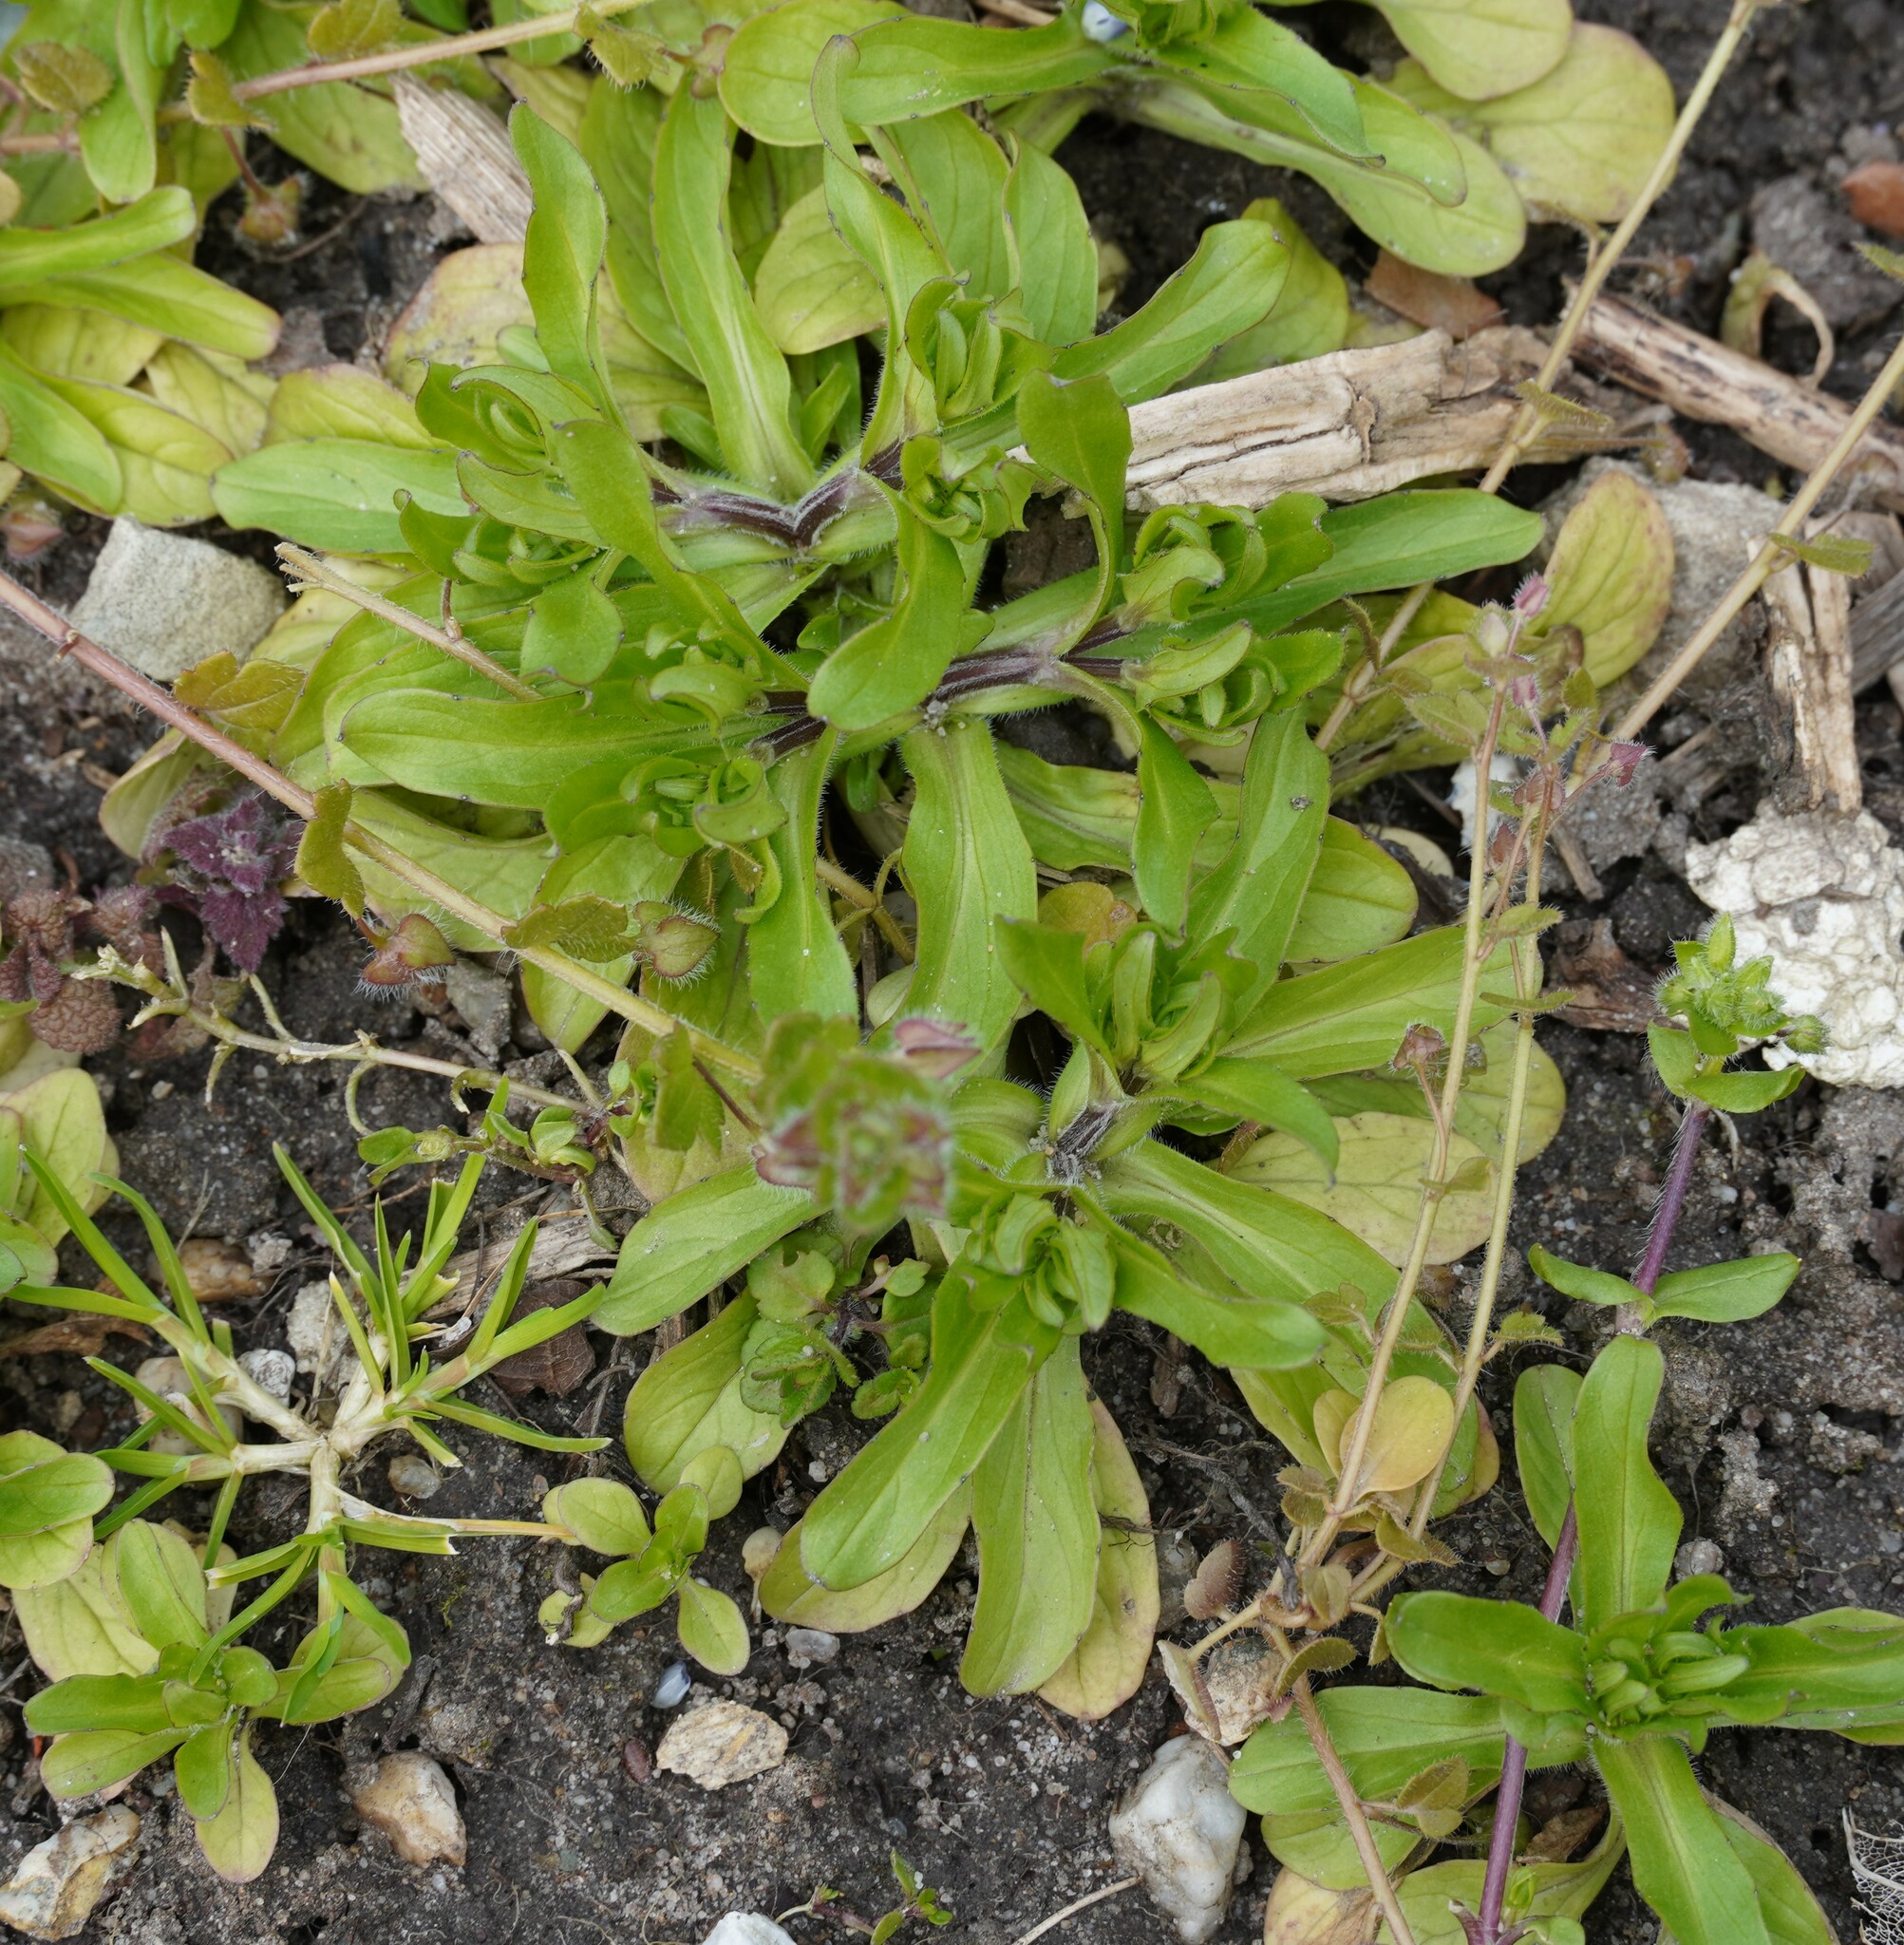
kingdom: Plantae
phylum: Tracheophyta
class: Magnoliopsida
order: Dipsacales
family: Caprifoliaceae
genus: Valerianella
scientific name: Valerianella
